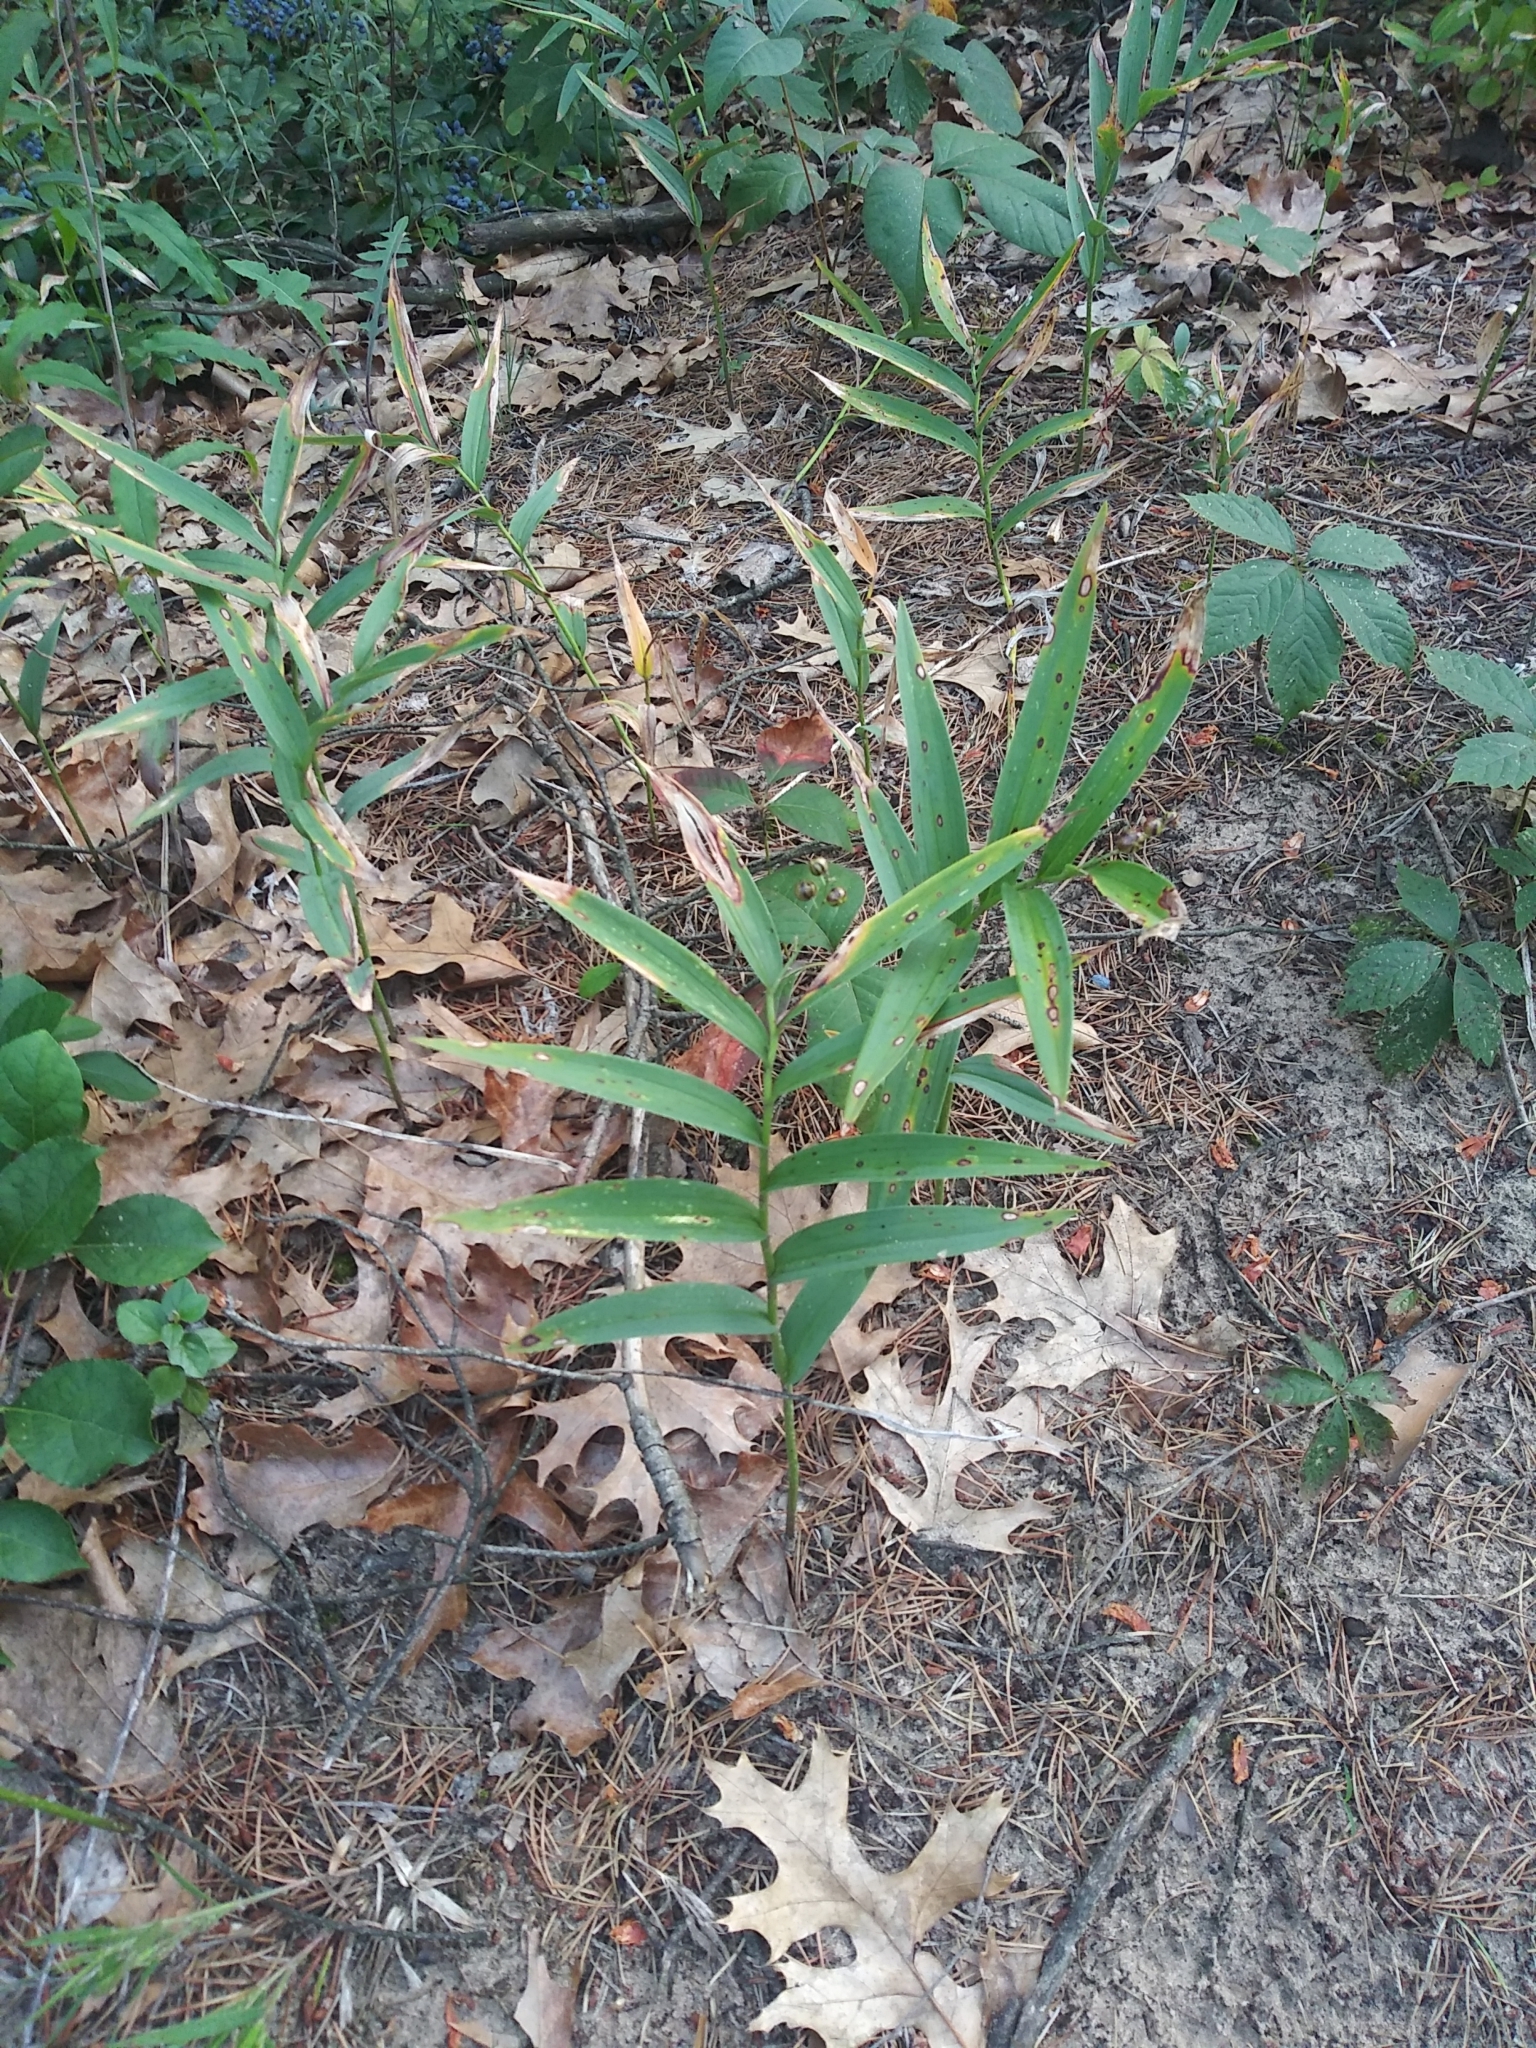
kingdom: Plantae
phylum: Tracheophyta
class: Liliopsida
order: Asparagales
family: Asparagaceae
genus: Maianthemum
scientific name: Maianthemum stellatum
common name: Little false solomon's seal
